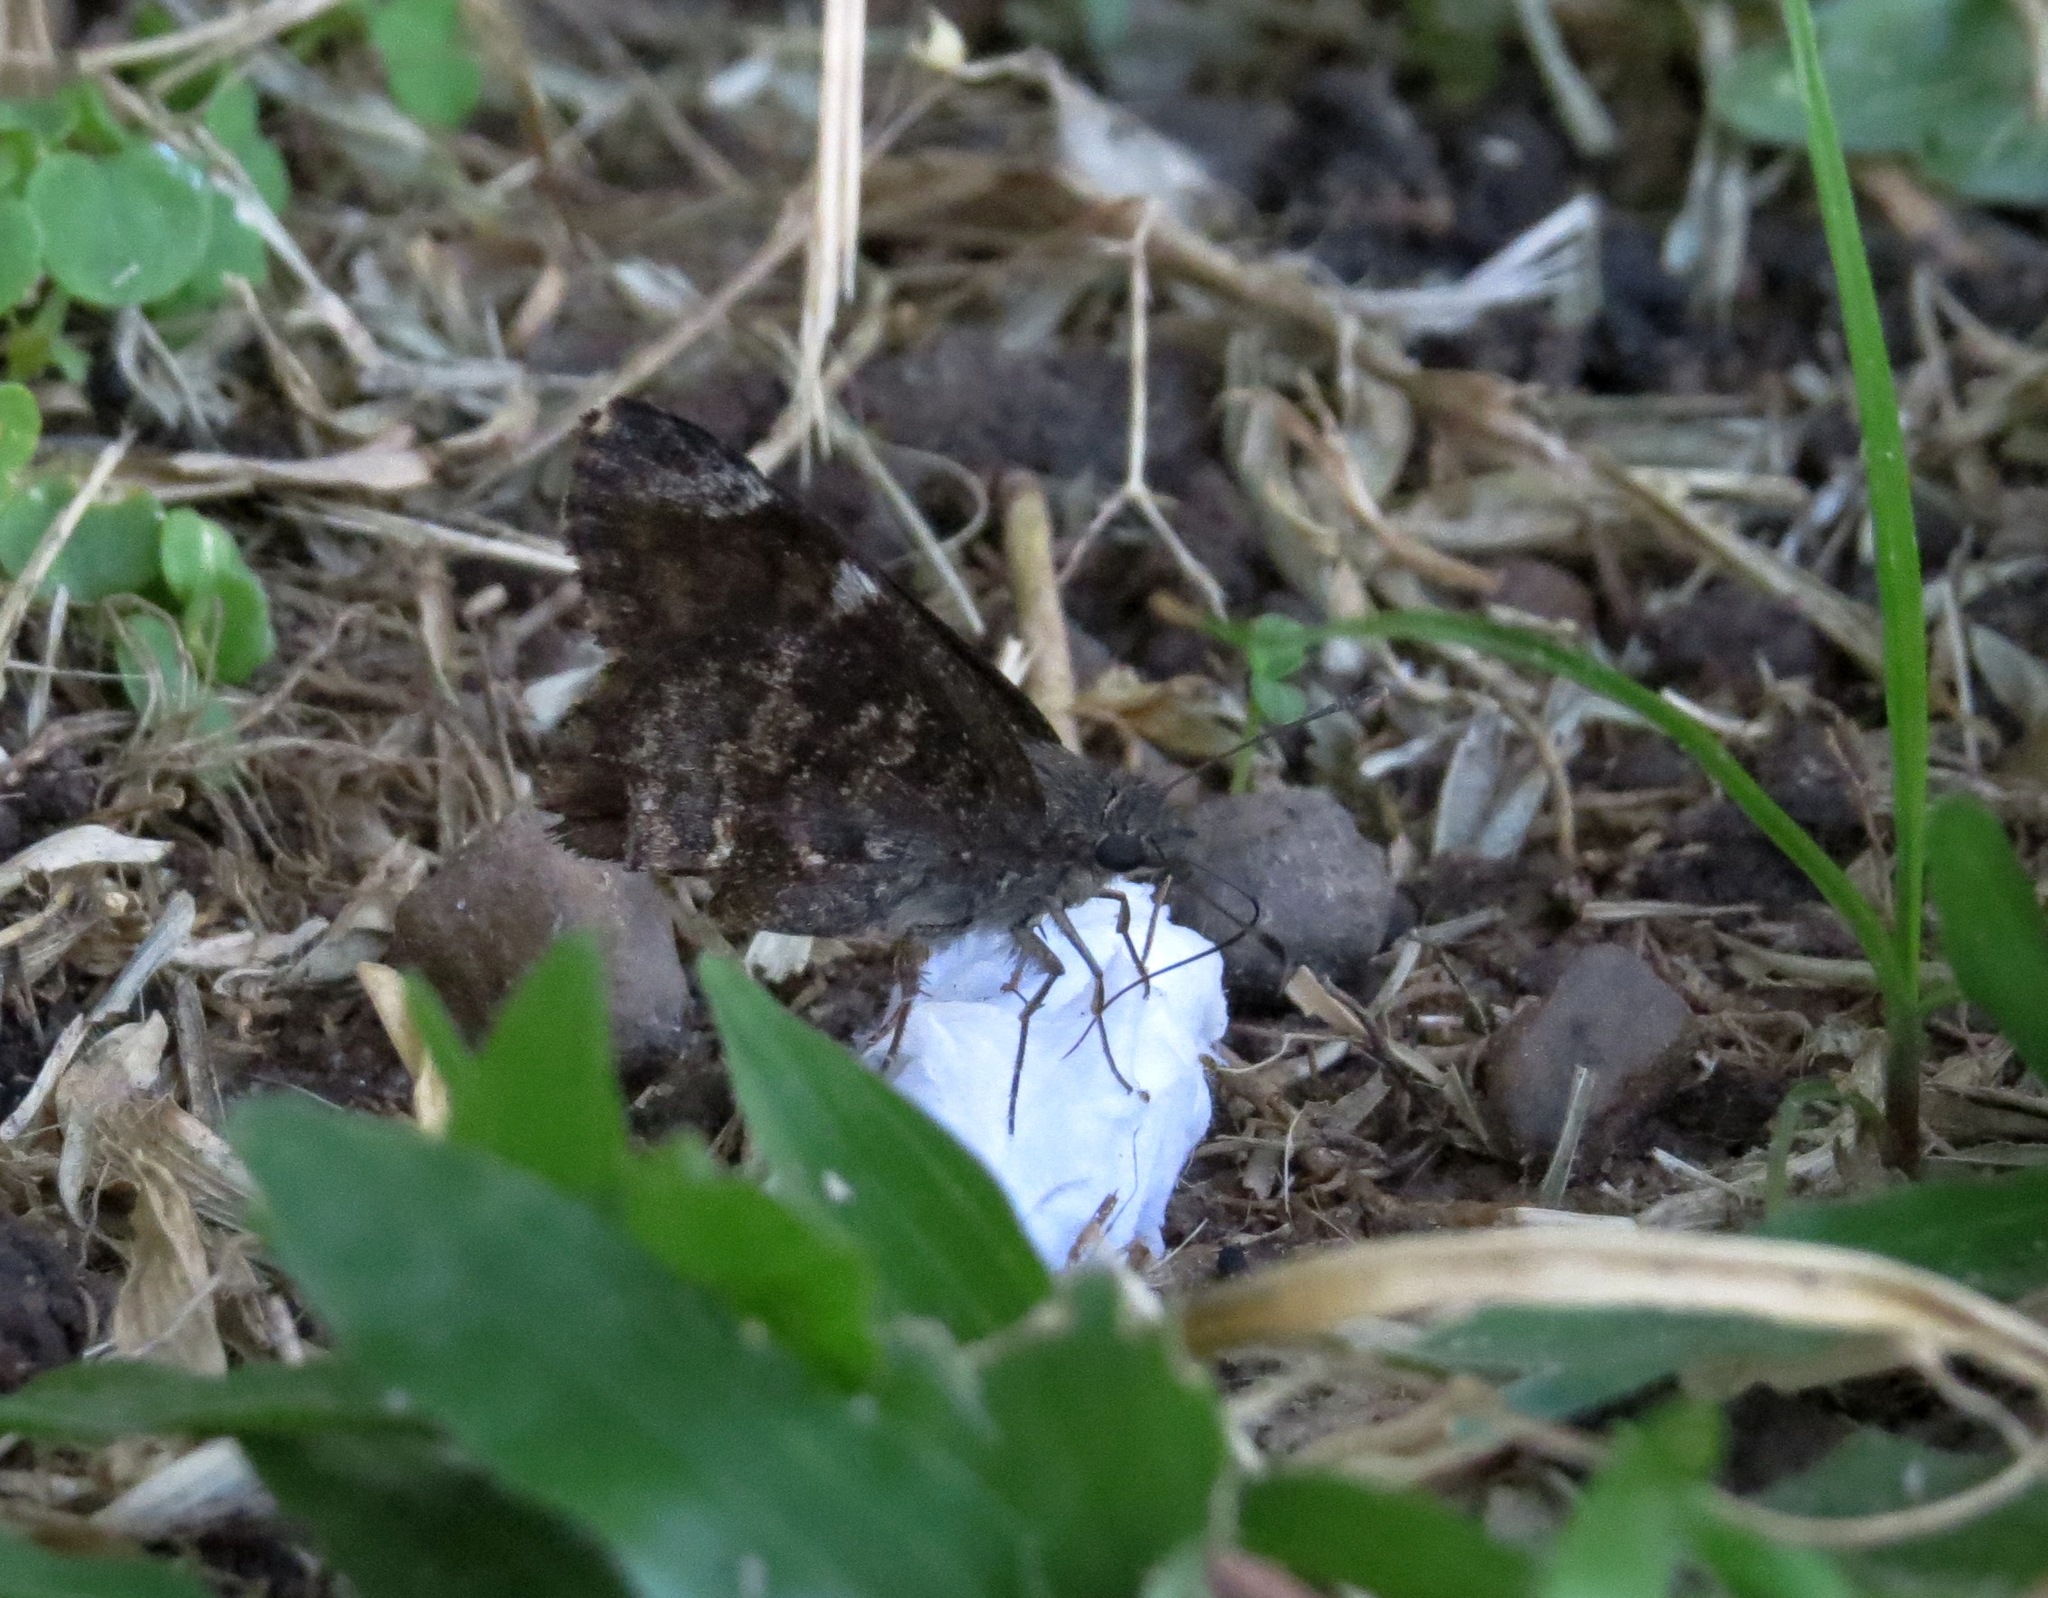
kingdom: Animalia
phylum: Arthropoda
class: Insecta
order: Lepidoptera
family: Hesperiidae
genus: Caicella
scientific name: Caicella calchas
